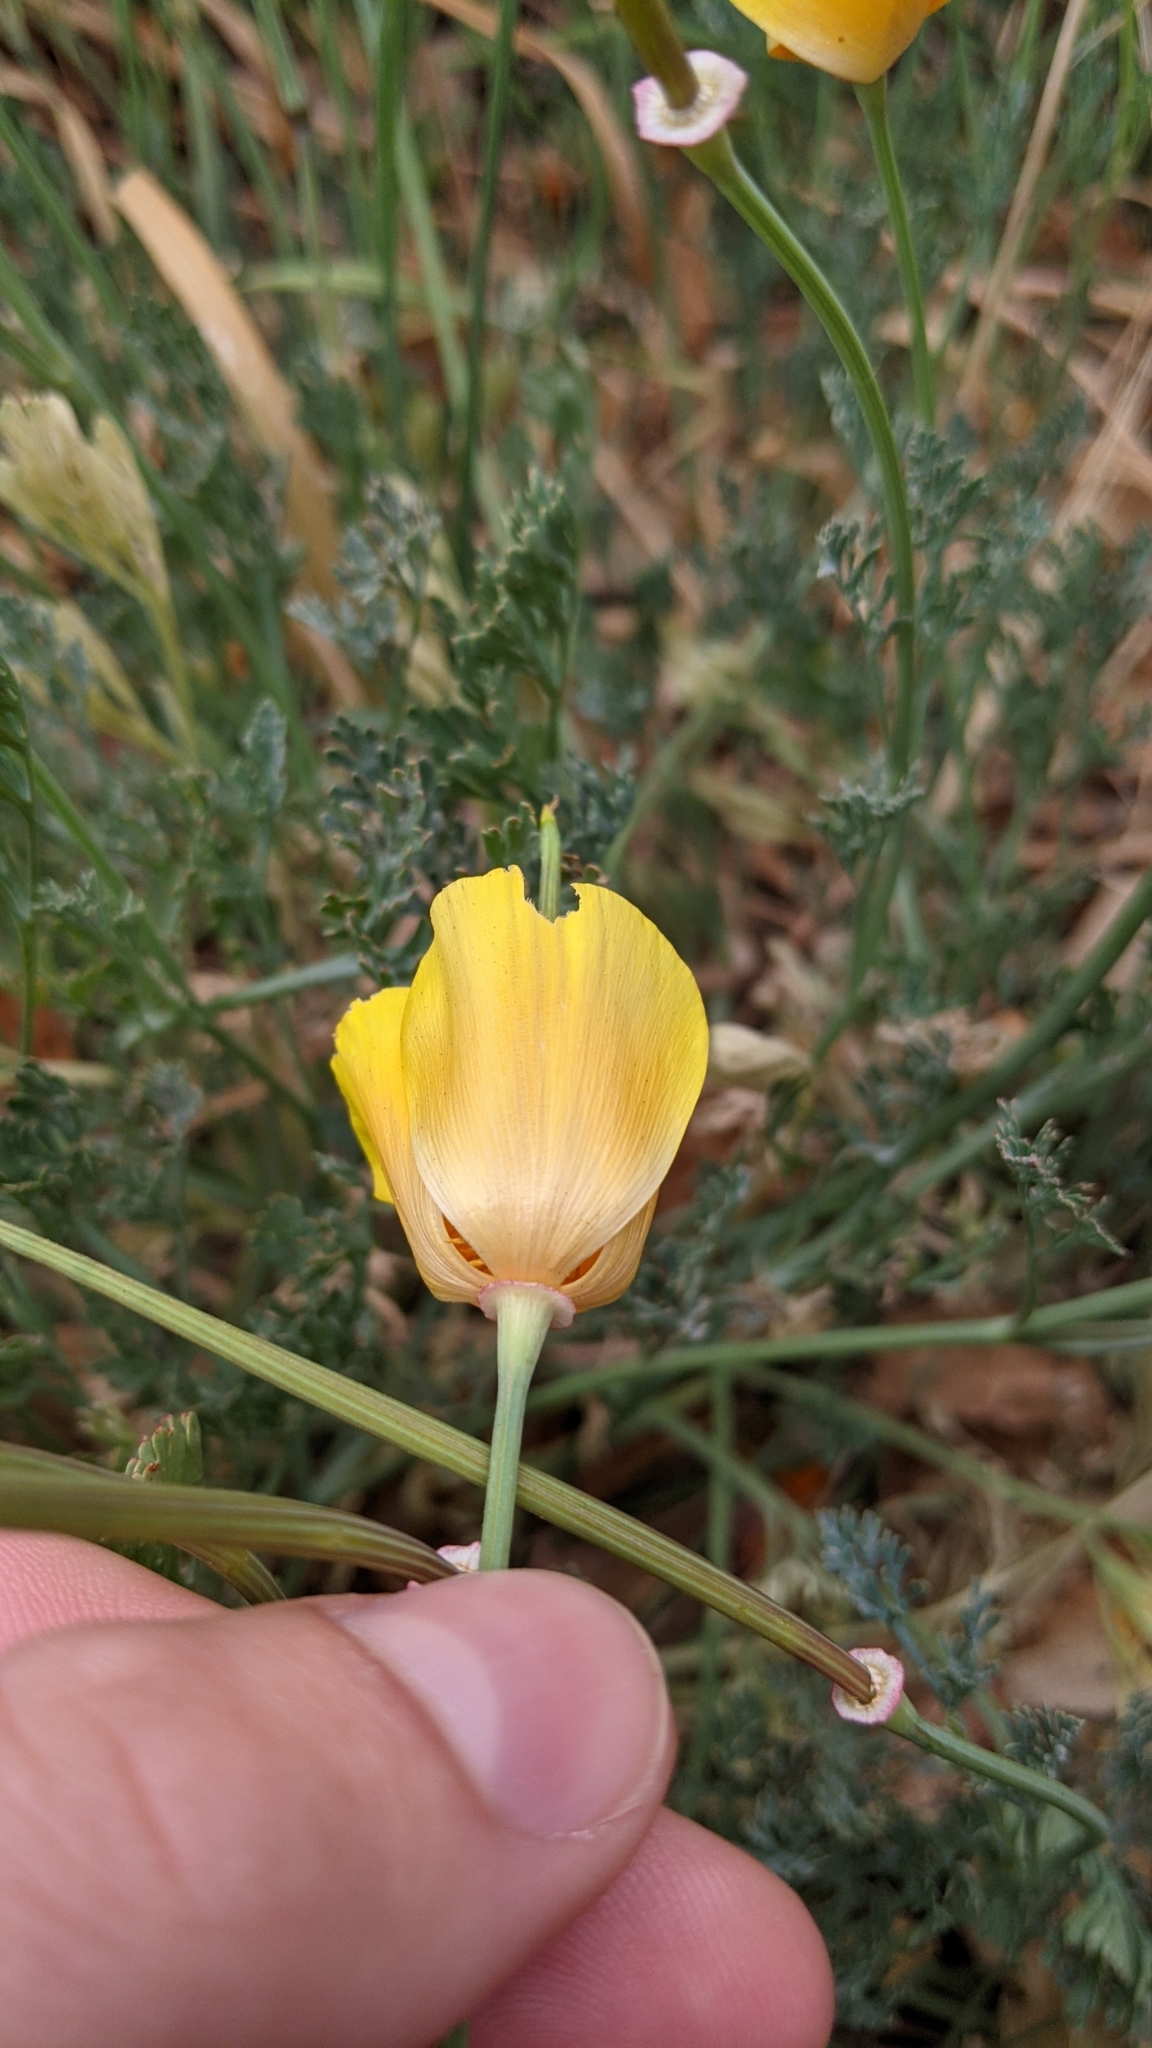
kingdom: Plantae
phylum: Tracheophyta
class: Magnoliopsida
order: Ranunculales
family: Papaveraceae
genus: Eschscholzia
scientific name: Eschscholzia californica
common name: California poppy
